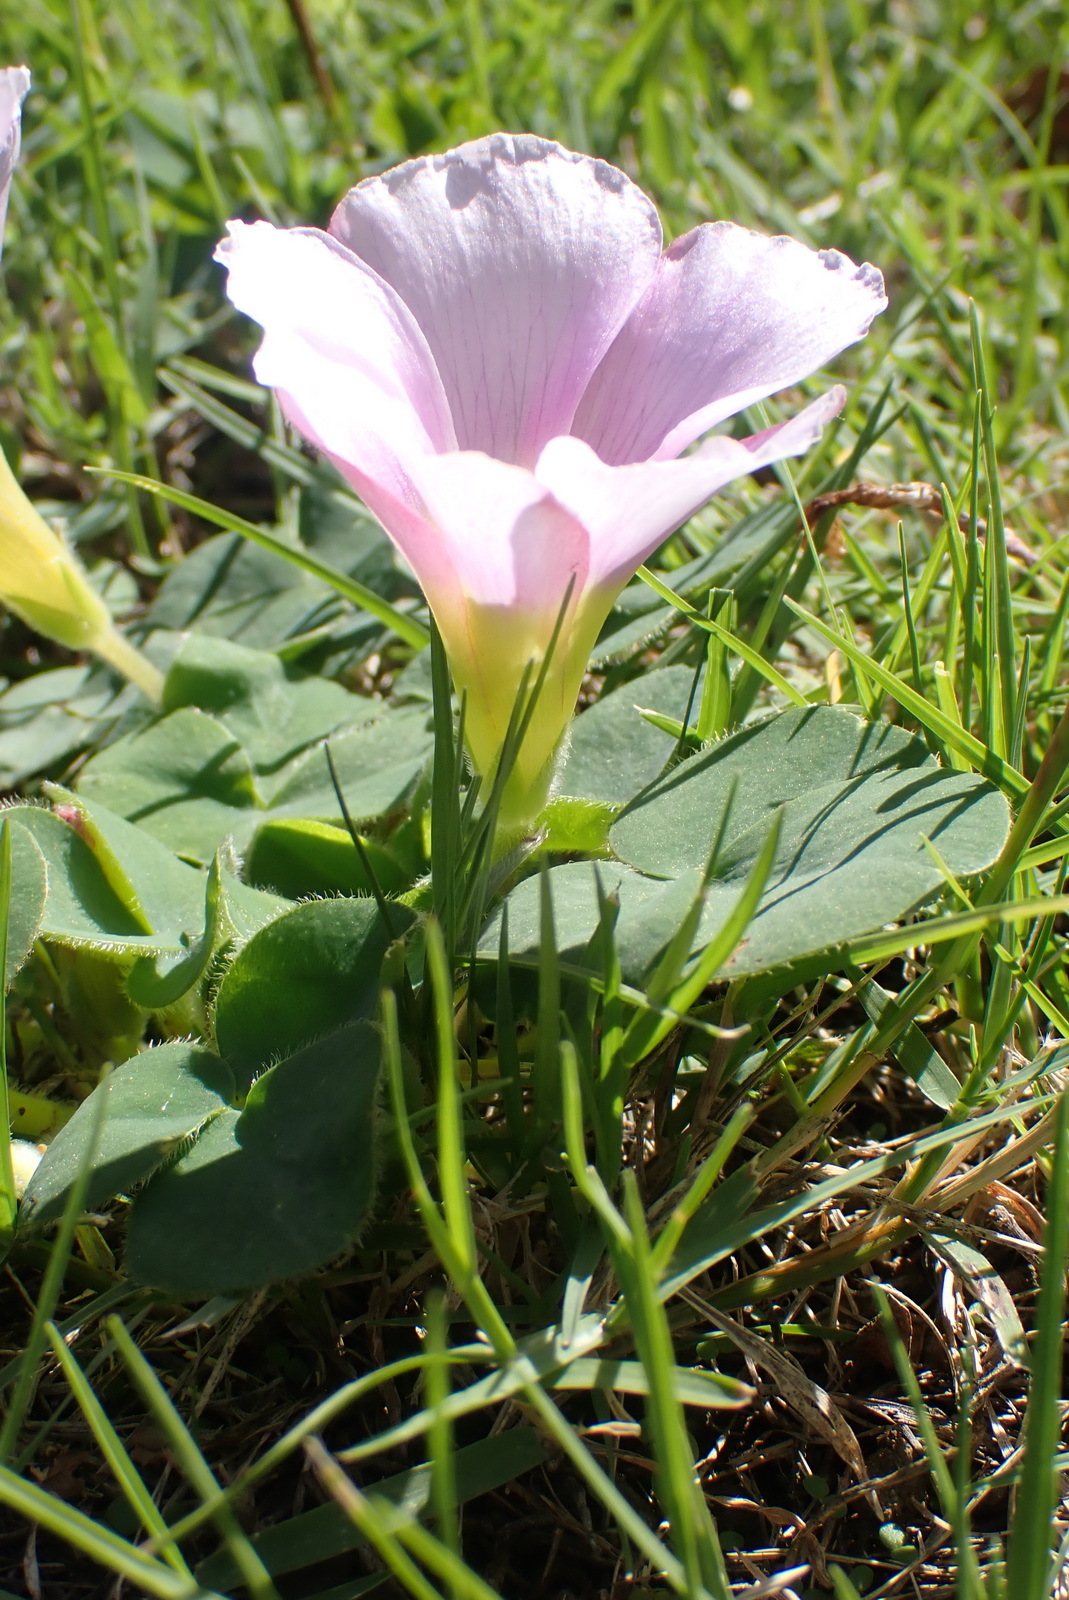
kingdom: Plantae
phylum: Tracheophyta
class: Magnoliopsida
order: Oxalidales
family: Oxalidaceae
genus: Oxalis
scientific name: Oxalis purpurea
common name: Purple woodsorrel
